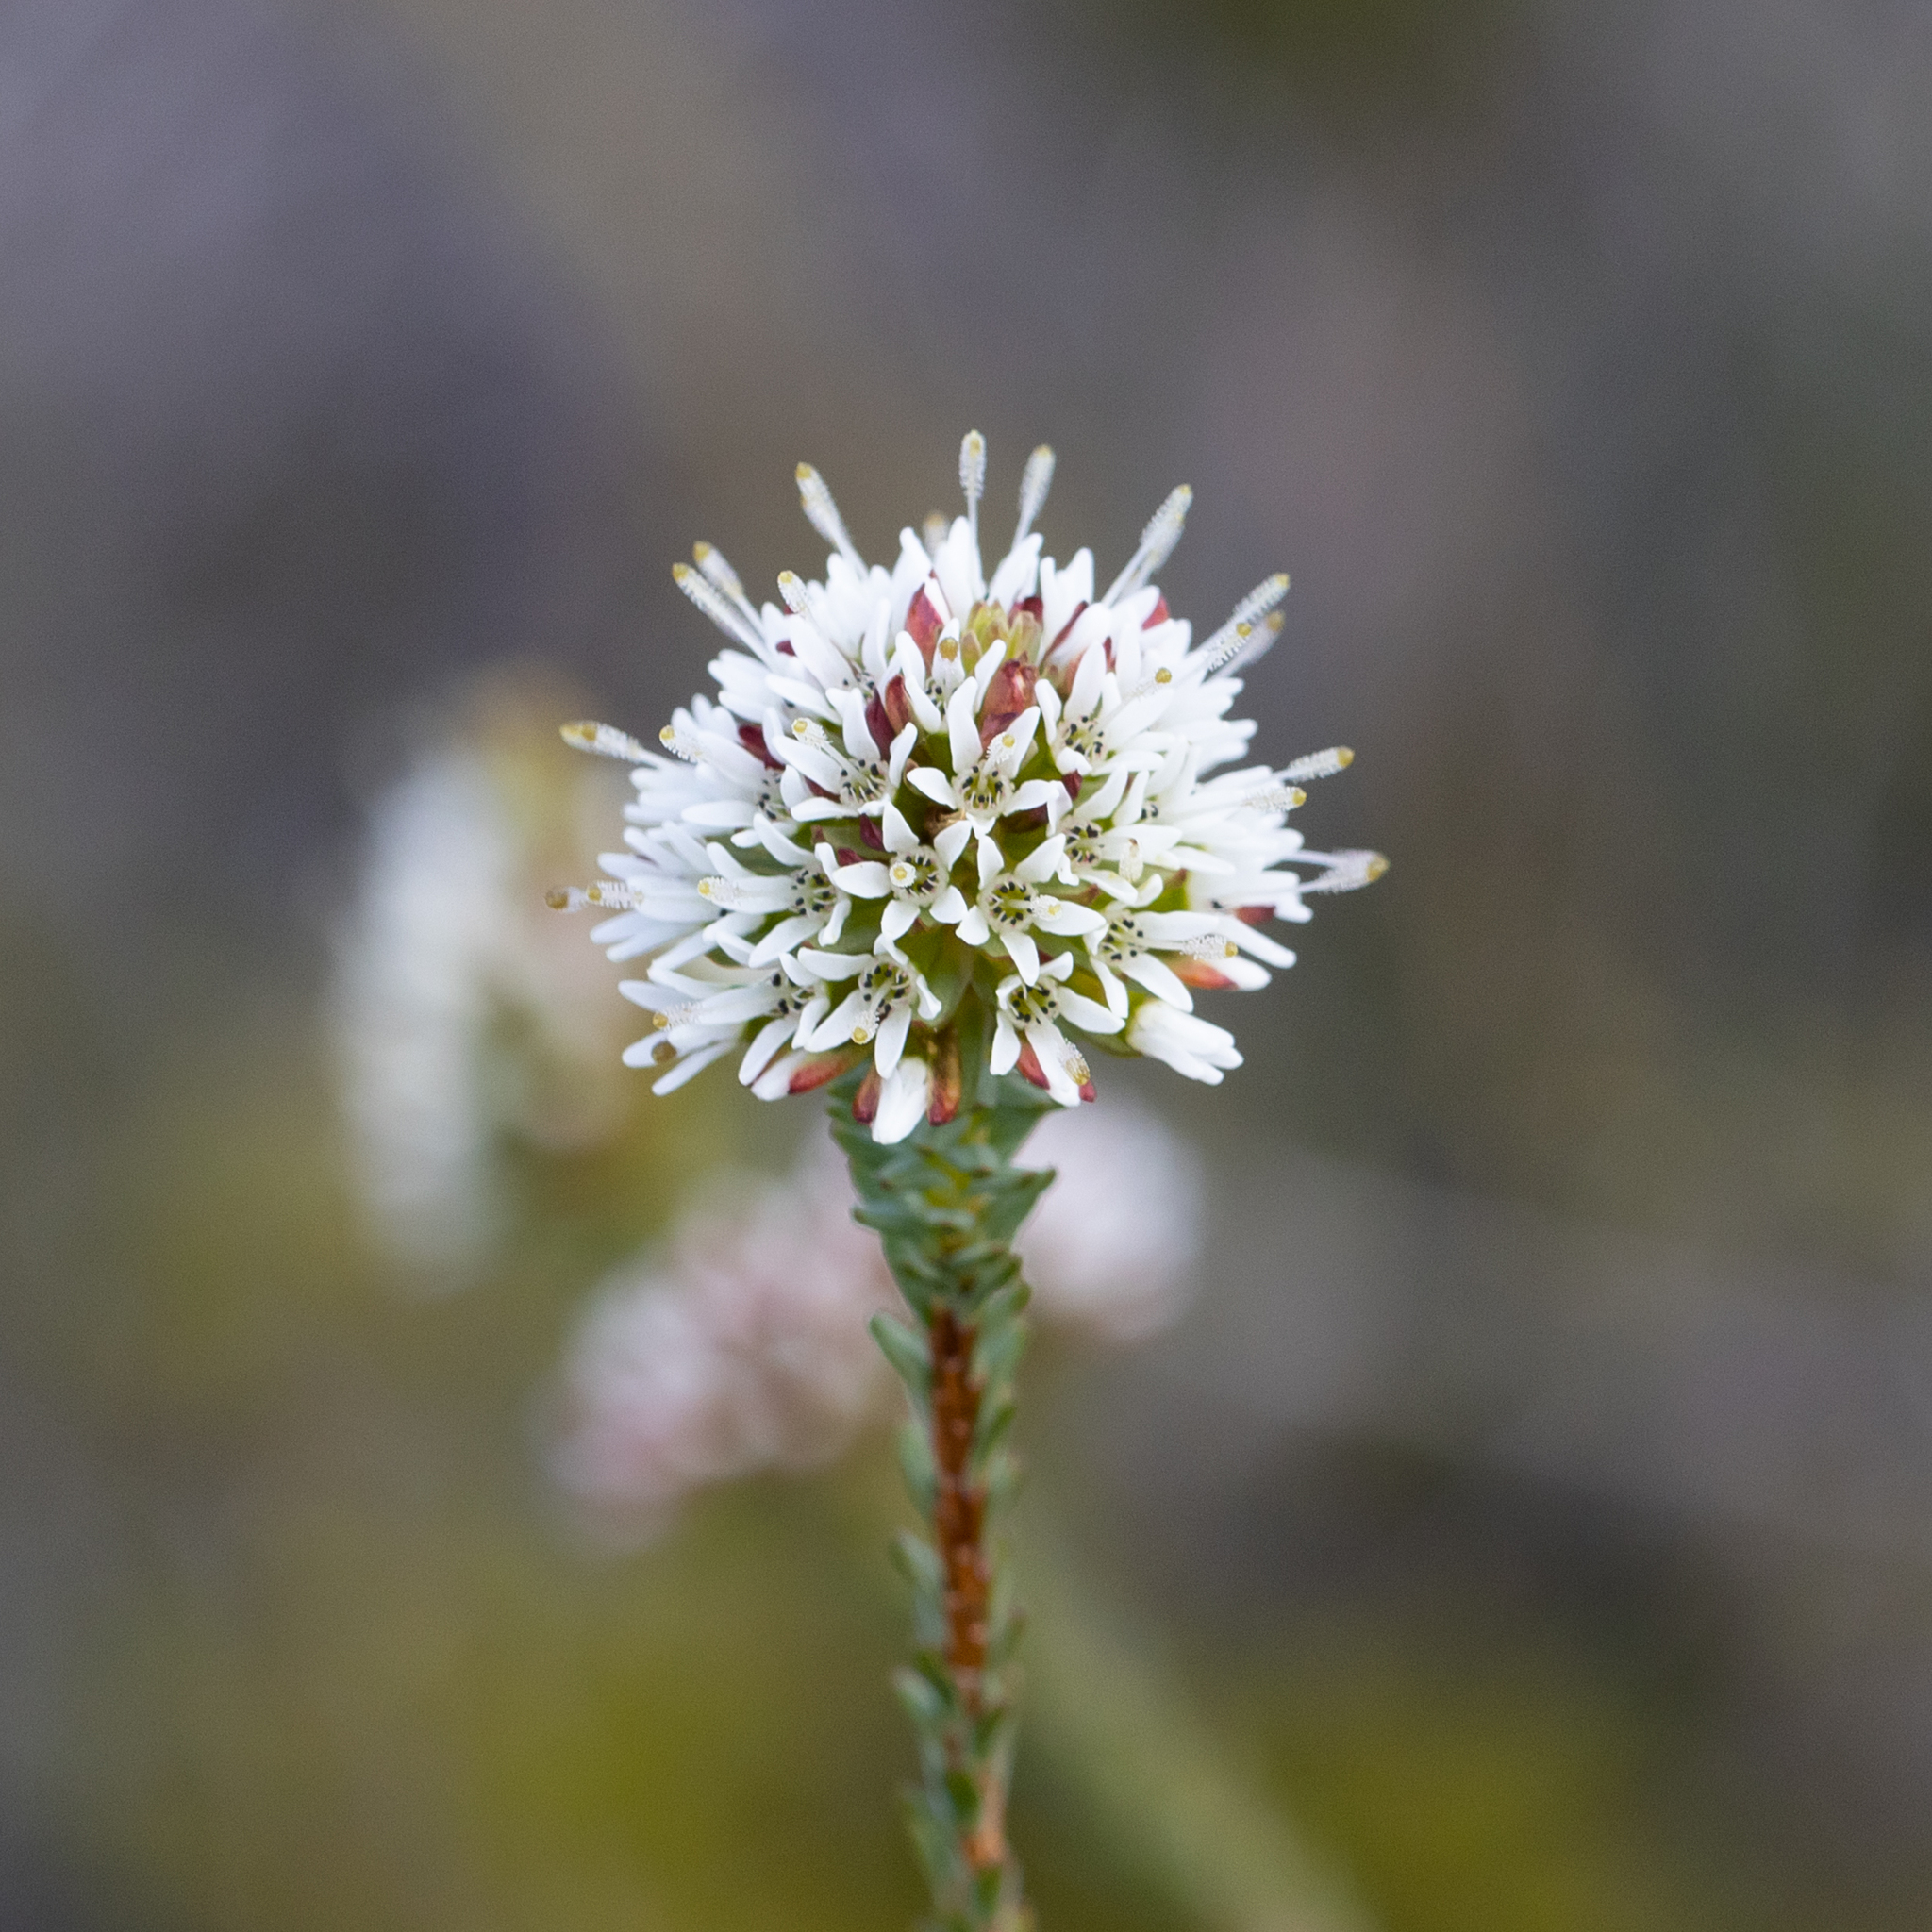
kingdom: Plantae
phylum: Tracheophyta
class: Magnoliopsida
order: Myrtales
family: Myrtaceae
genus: Darwinia
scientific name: Darwinia vestita
